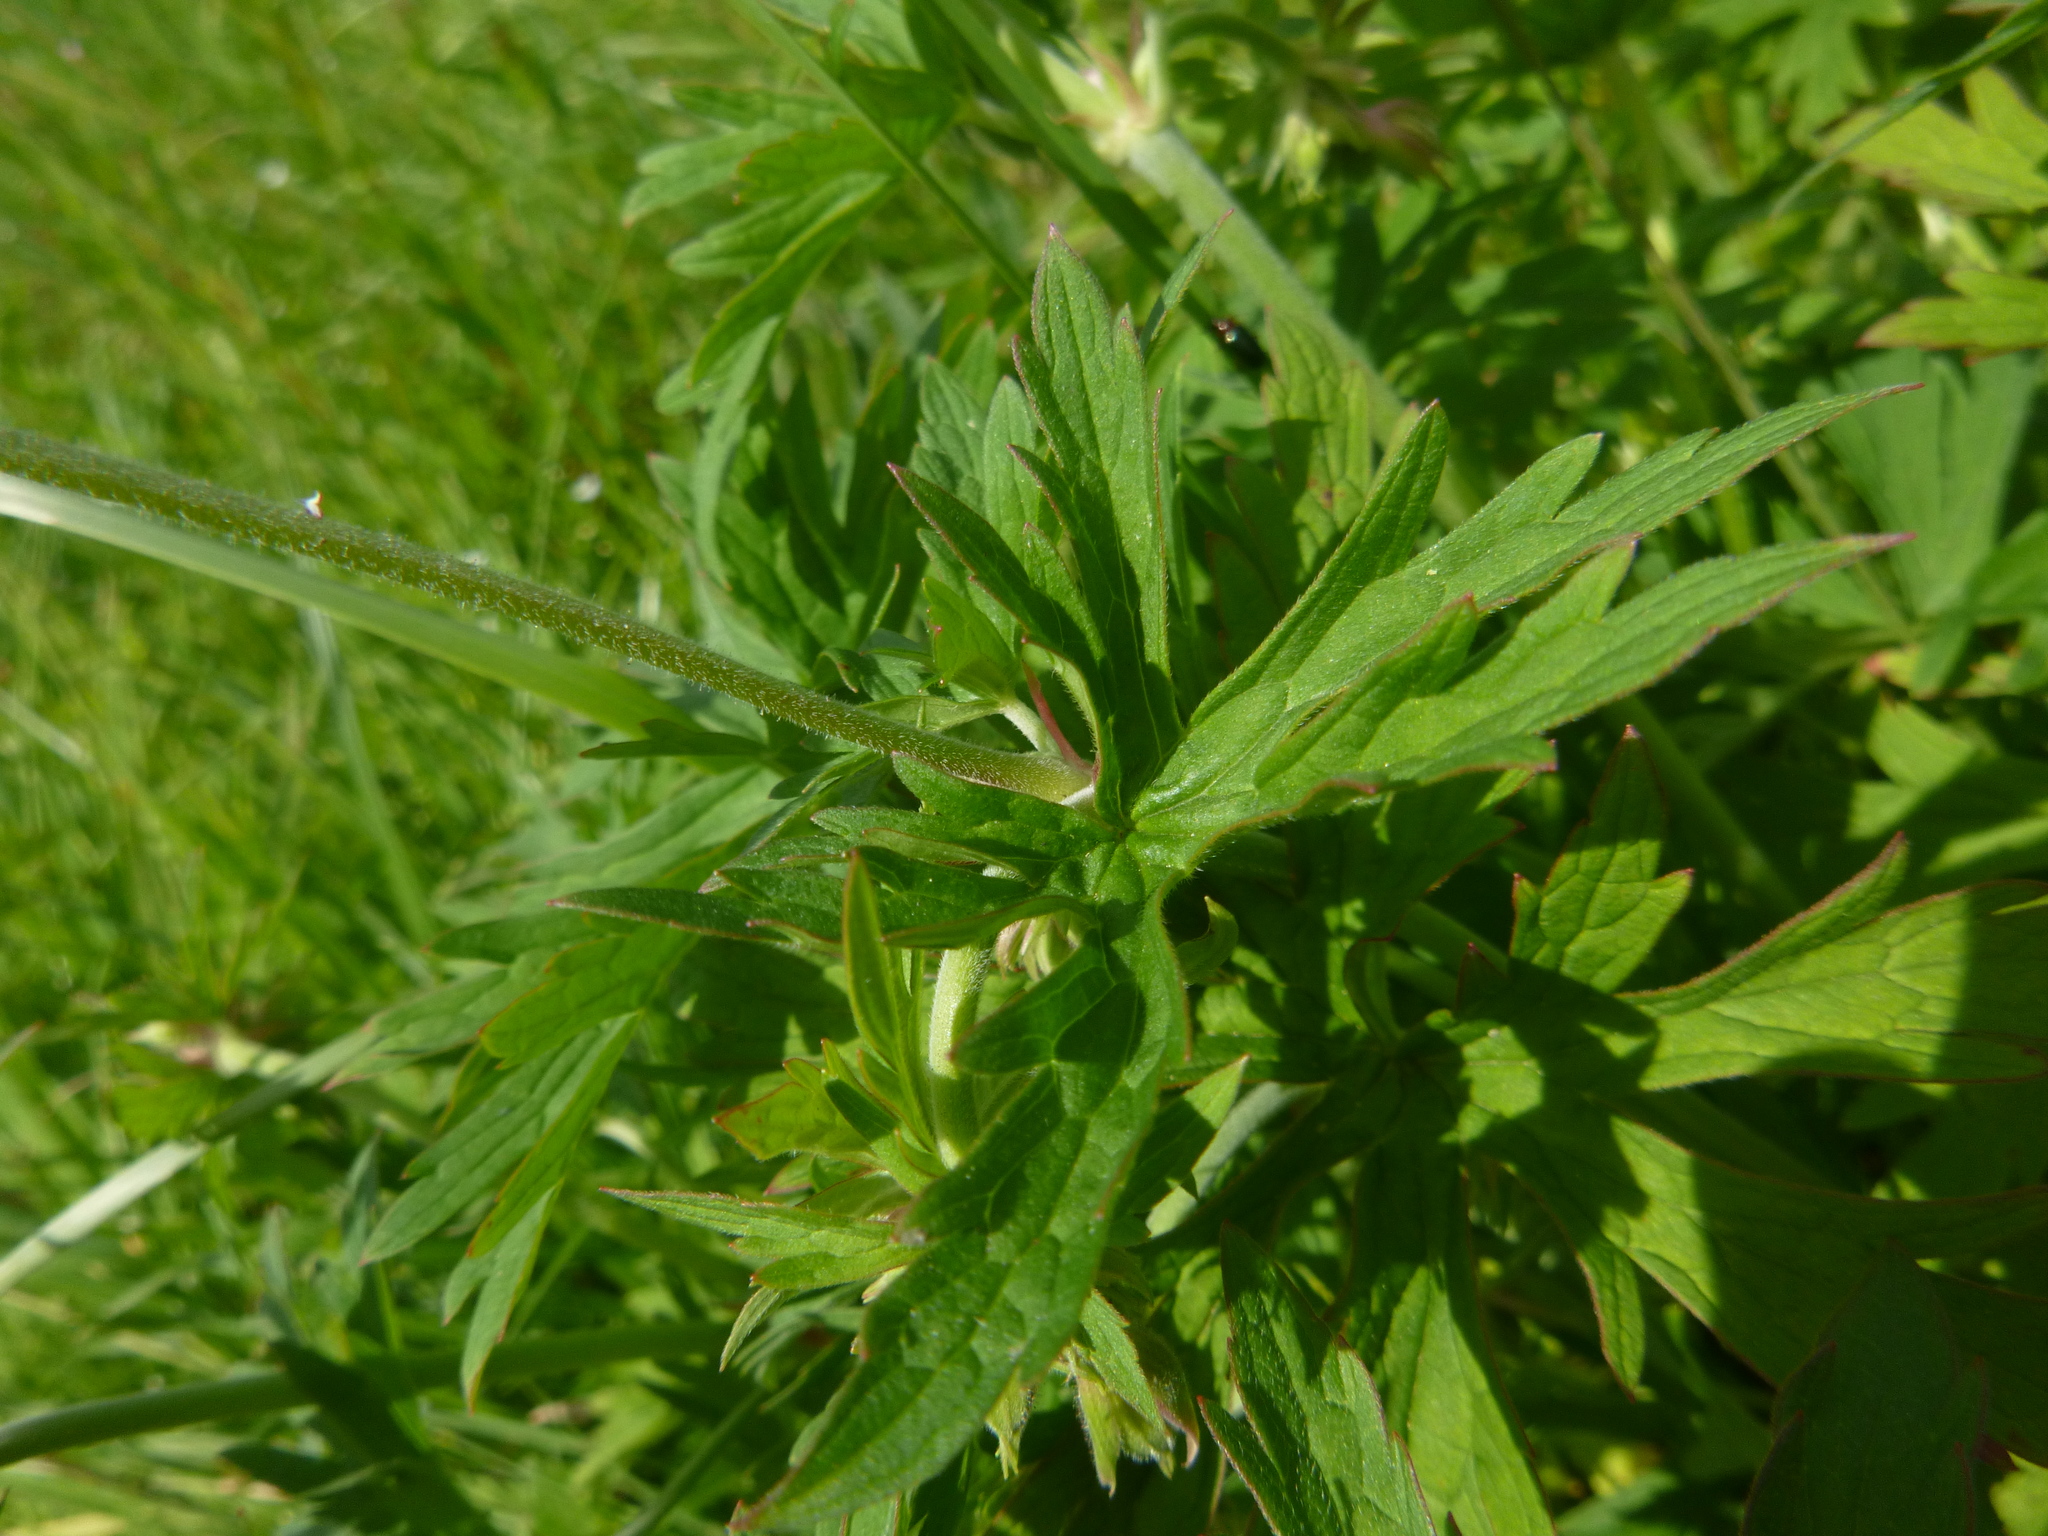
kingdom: Plantae
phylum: Tracheophyta
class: Magnoliopsida
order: Geraniales
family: Geraniaceae
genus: Geranium
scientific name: Geranium pratense
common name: Meadow crane's-bill
